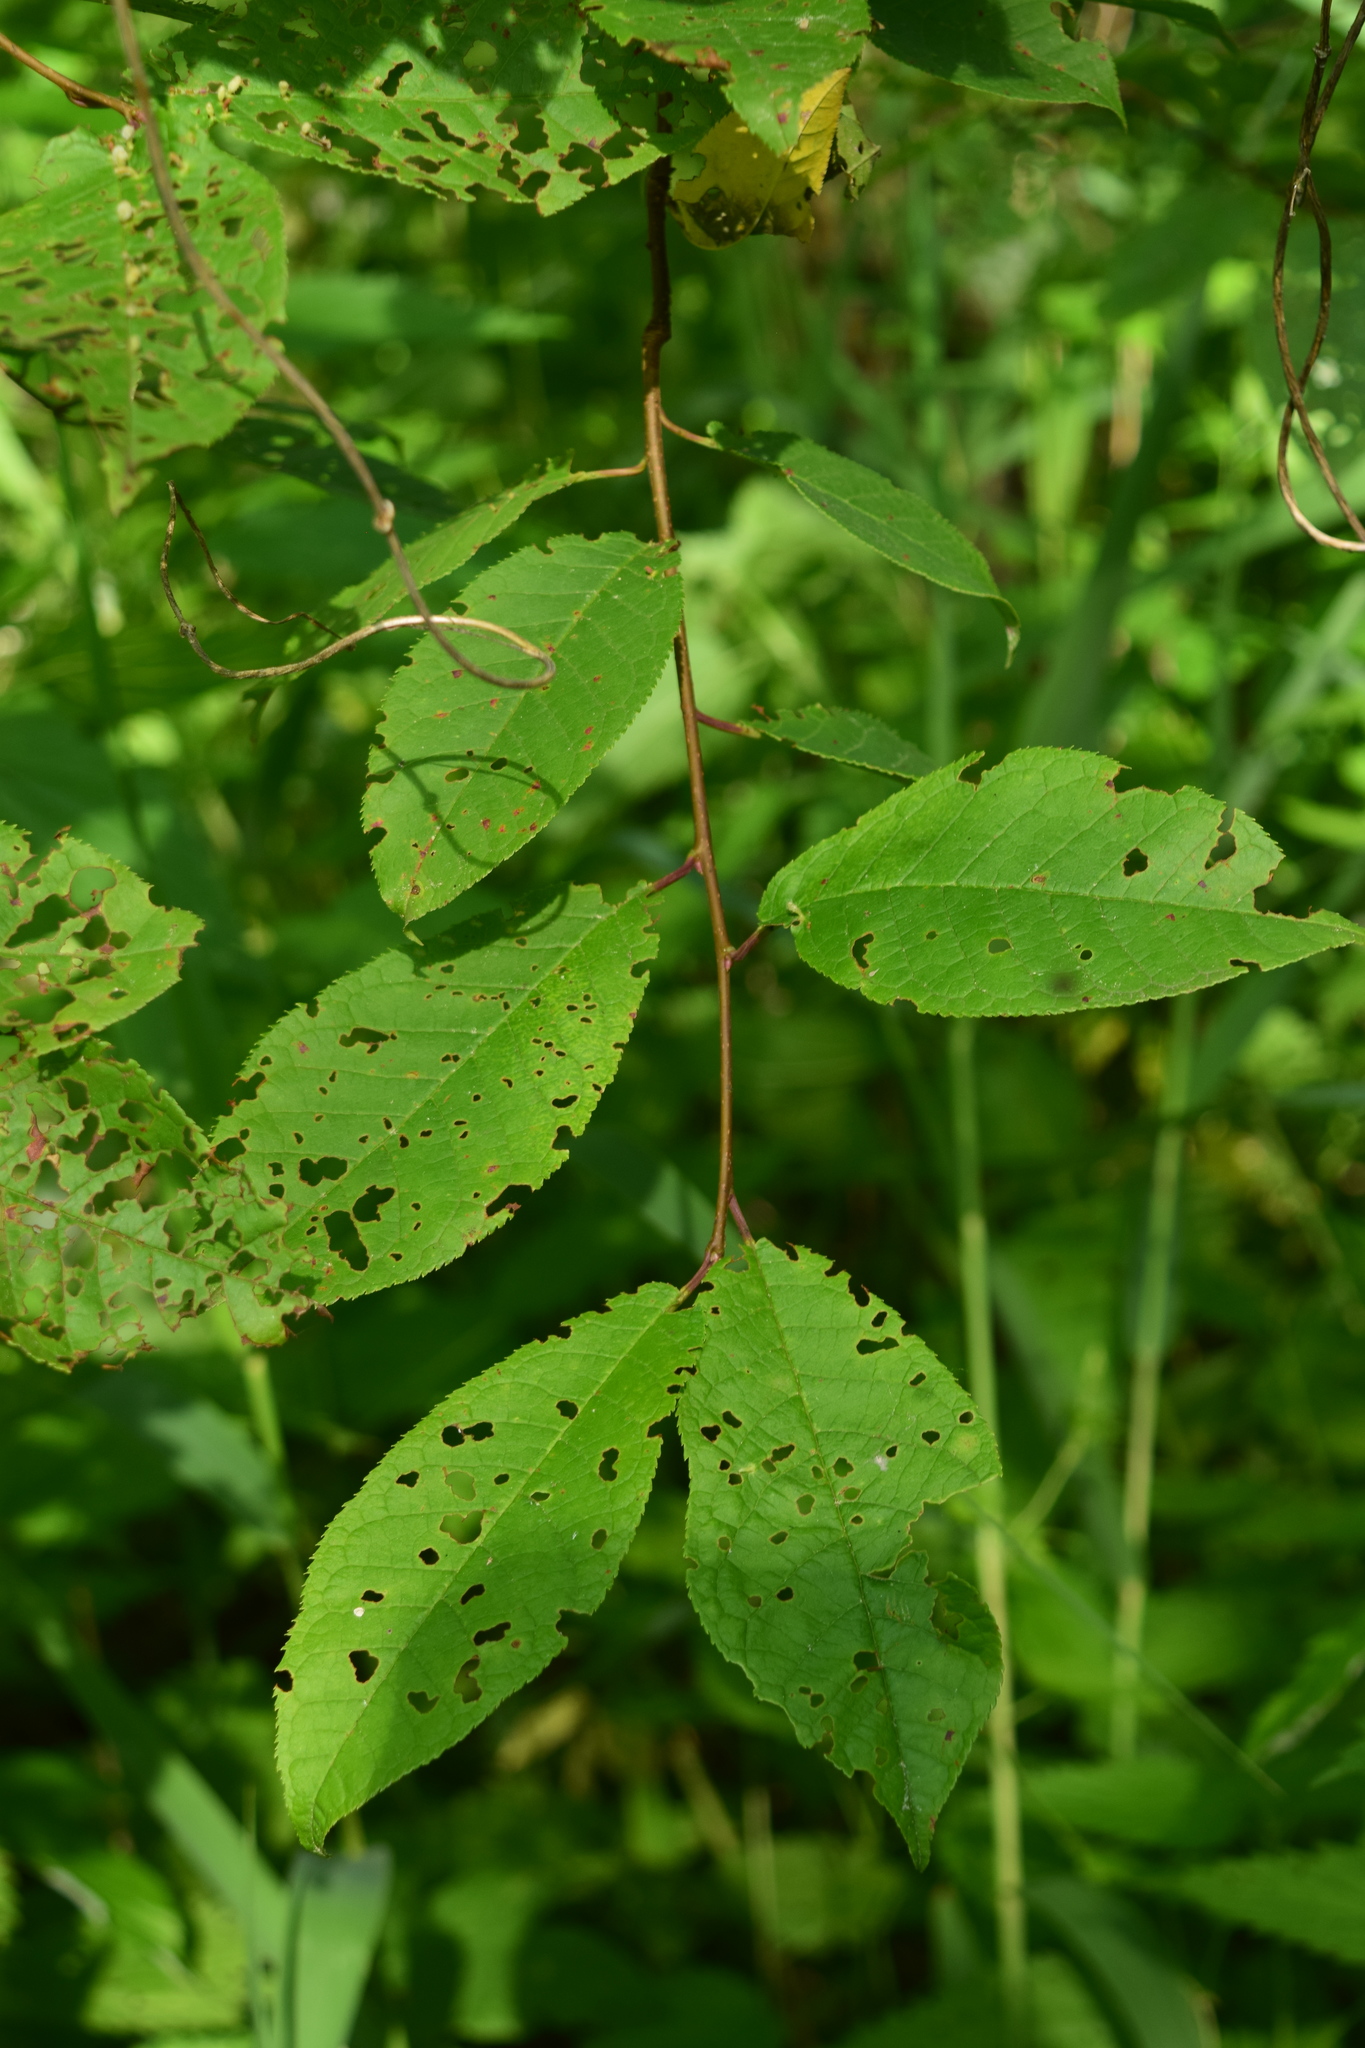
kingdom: Plantae
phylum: Tracheophyta
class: Magnoliopsida
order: Rosales
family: Rosaceae
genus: Prunus
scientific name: Prunus padus
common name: Bird cherry
